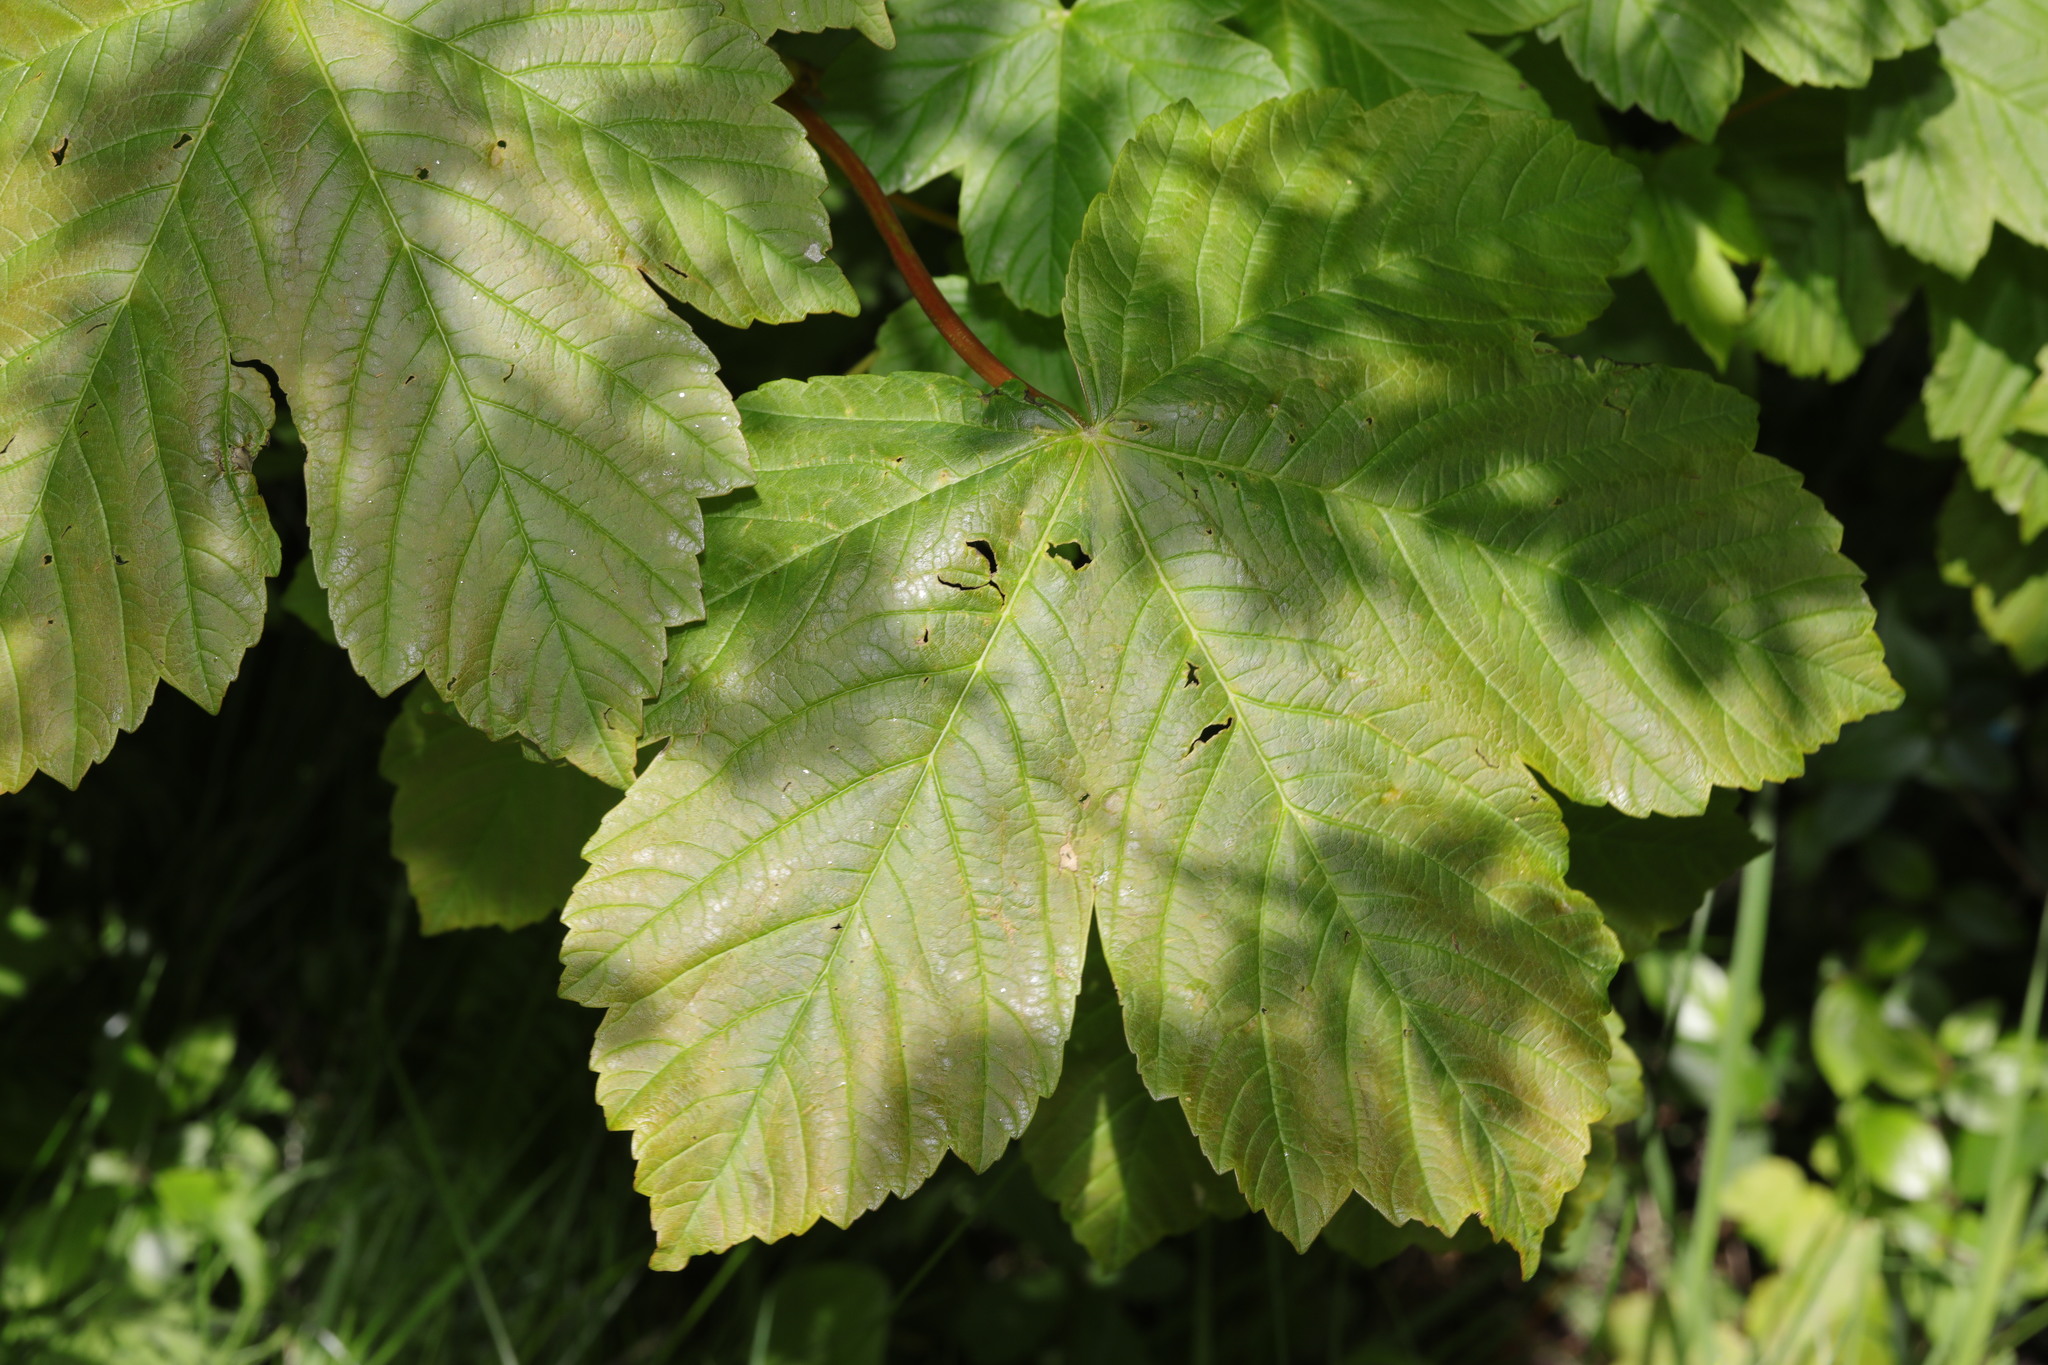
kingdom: Plantae
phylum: Tracheophyta
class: Magnoliopsida
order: Sapindales
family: Sapindaceae
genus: Acer
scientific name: Acer pseudoplatanus
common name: Sycamore
